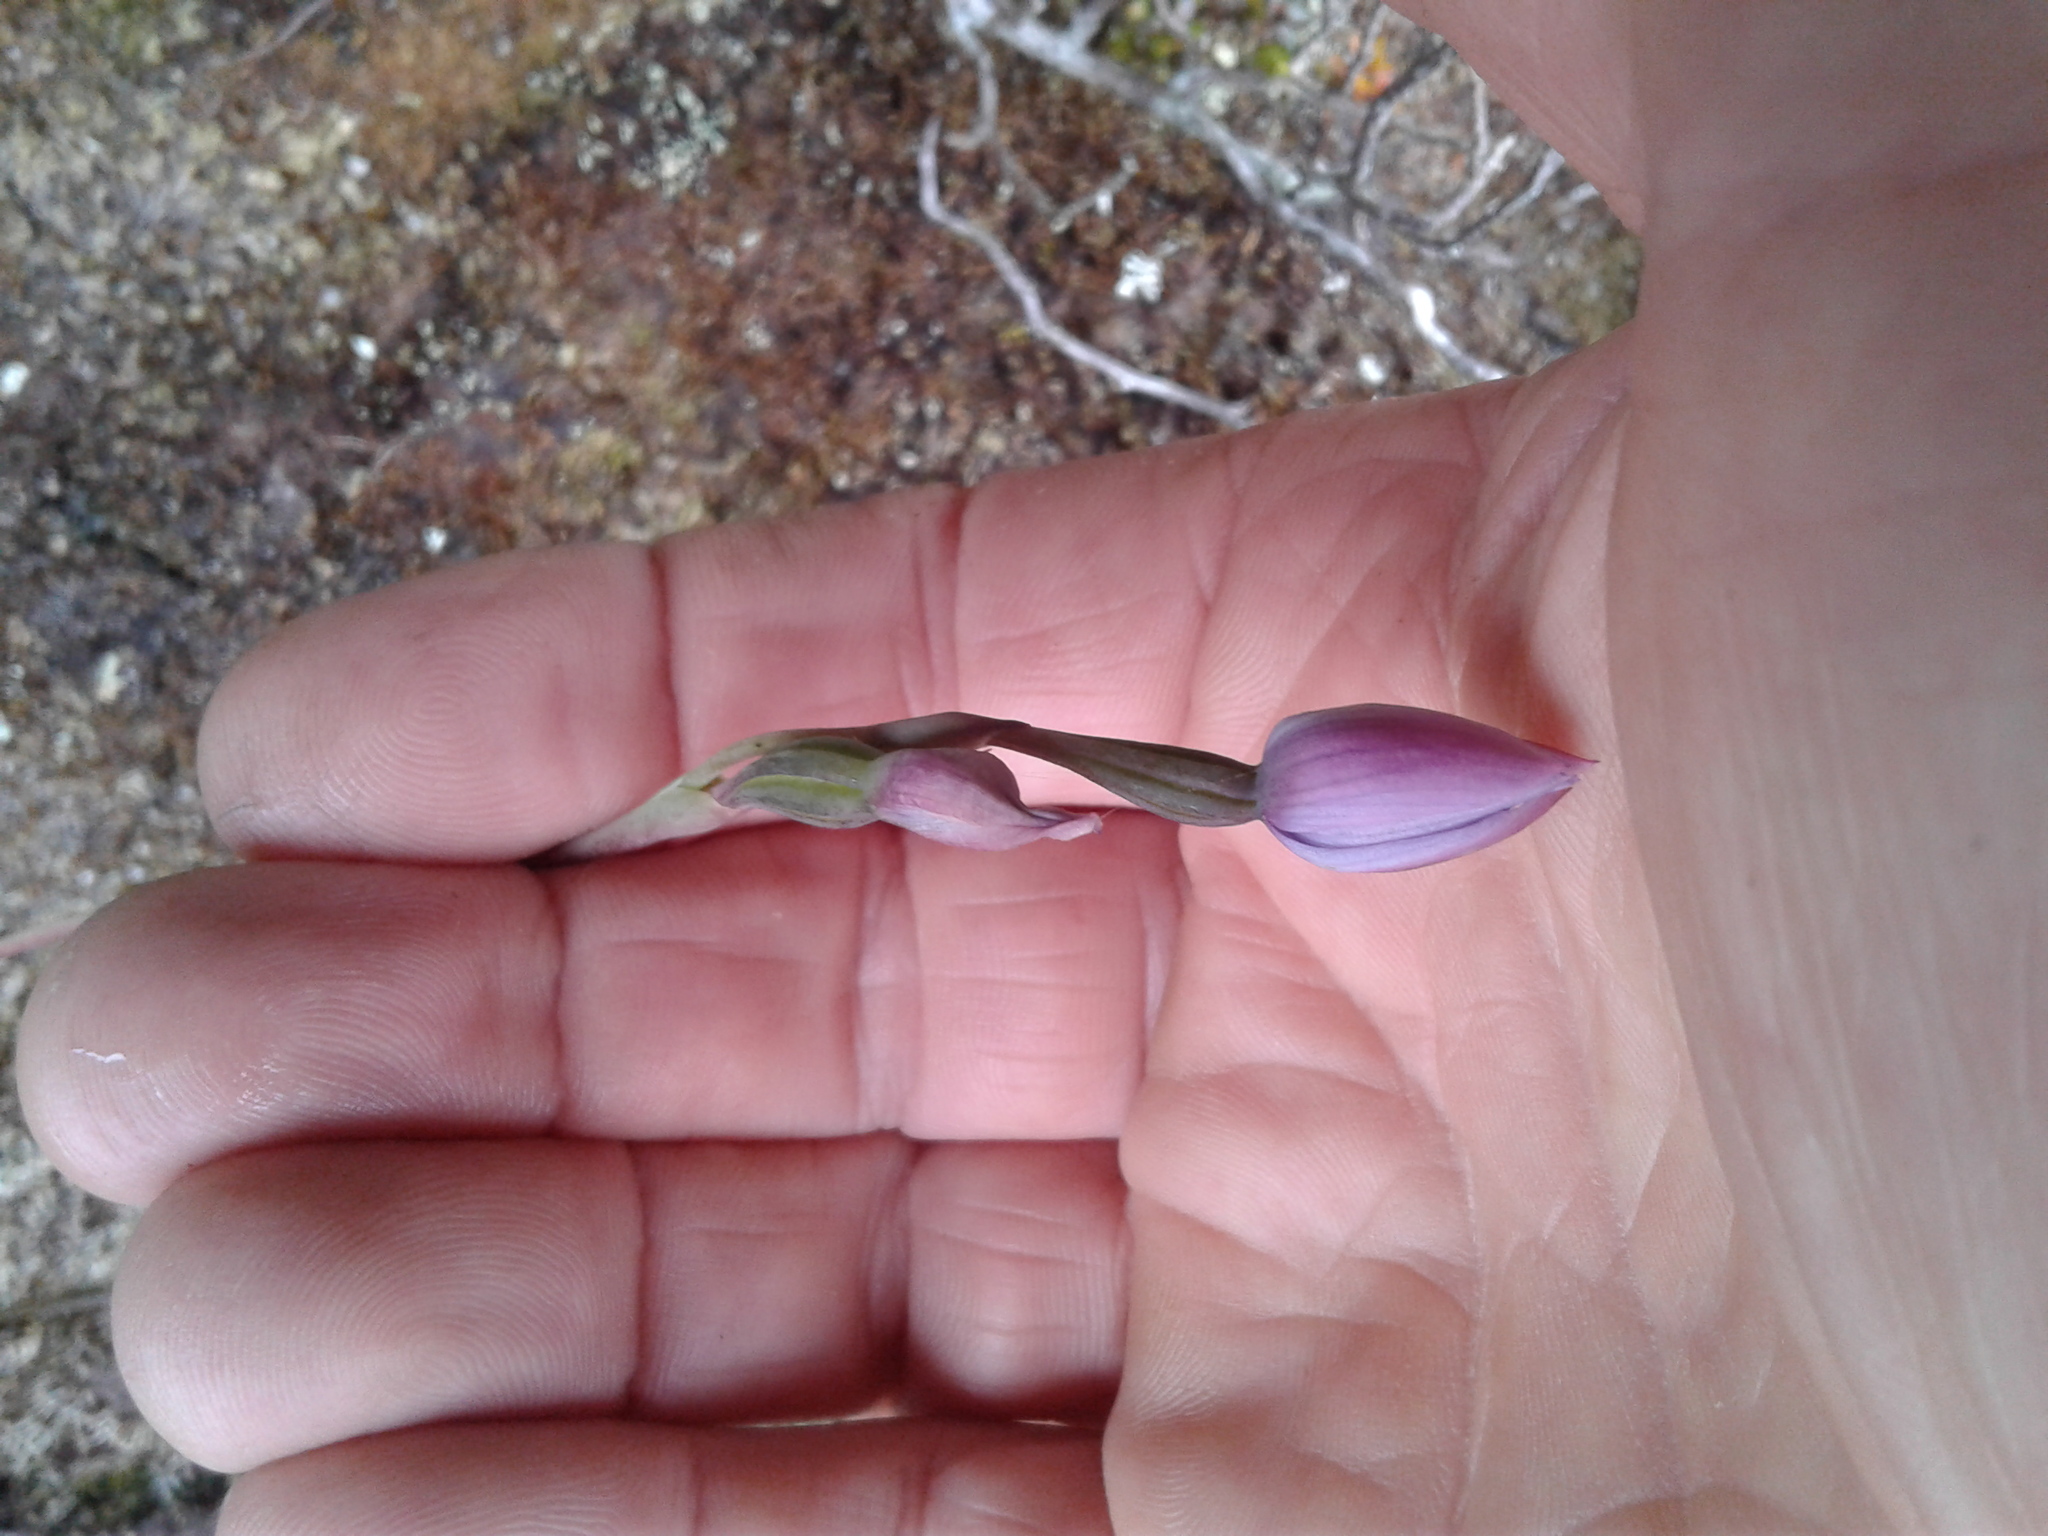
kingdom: Plantae
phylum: Tracheophyta
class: Liliopsida
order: Asparagales
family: Orchidaceae
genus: Thelymitra
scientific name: Thelymitra
